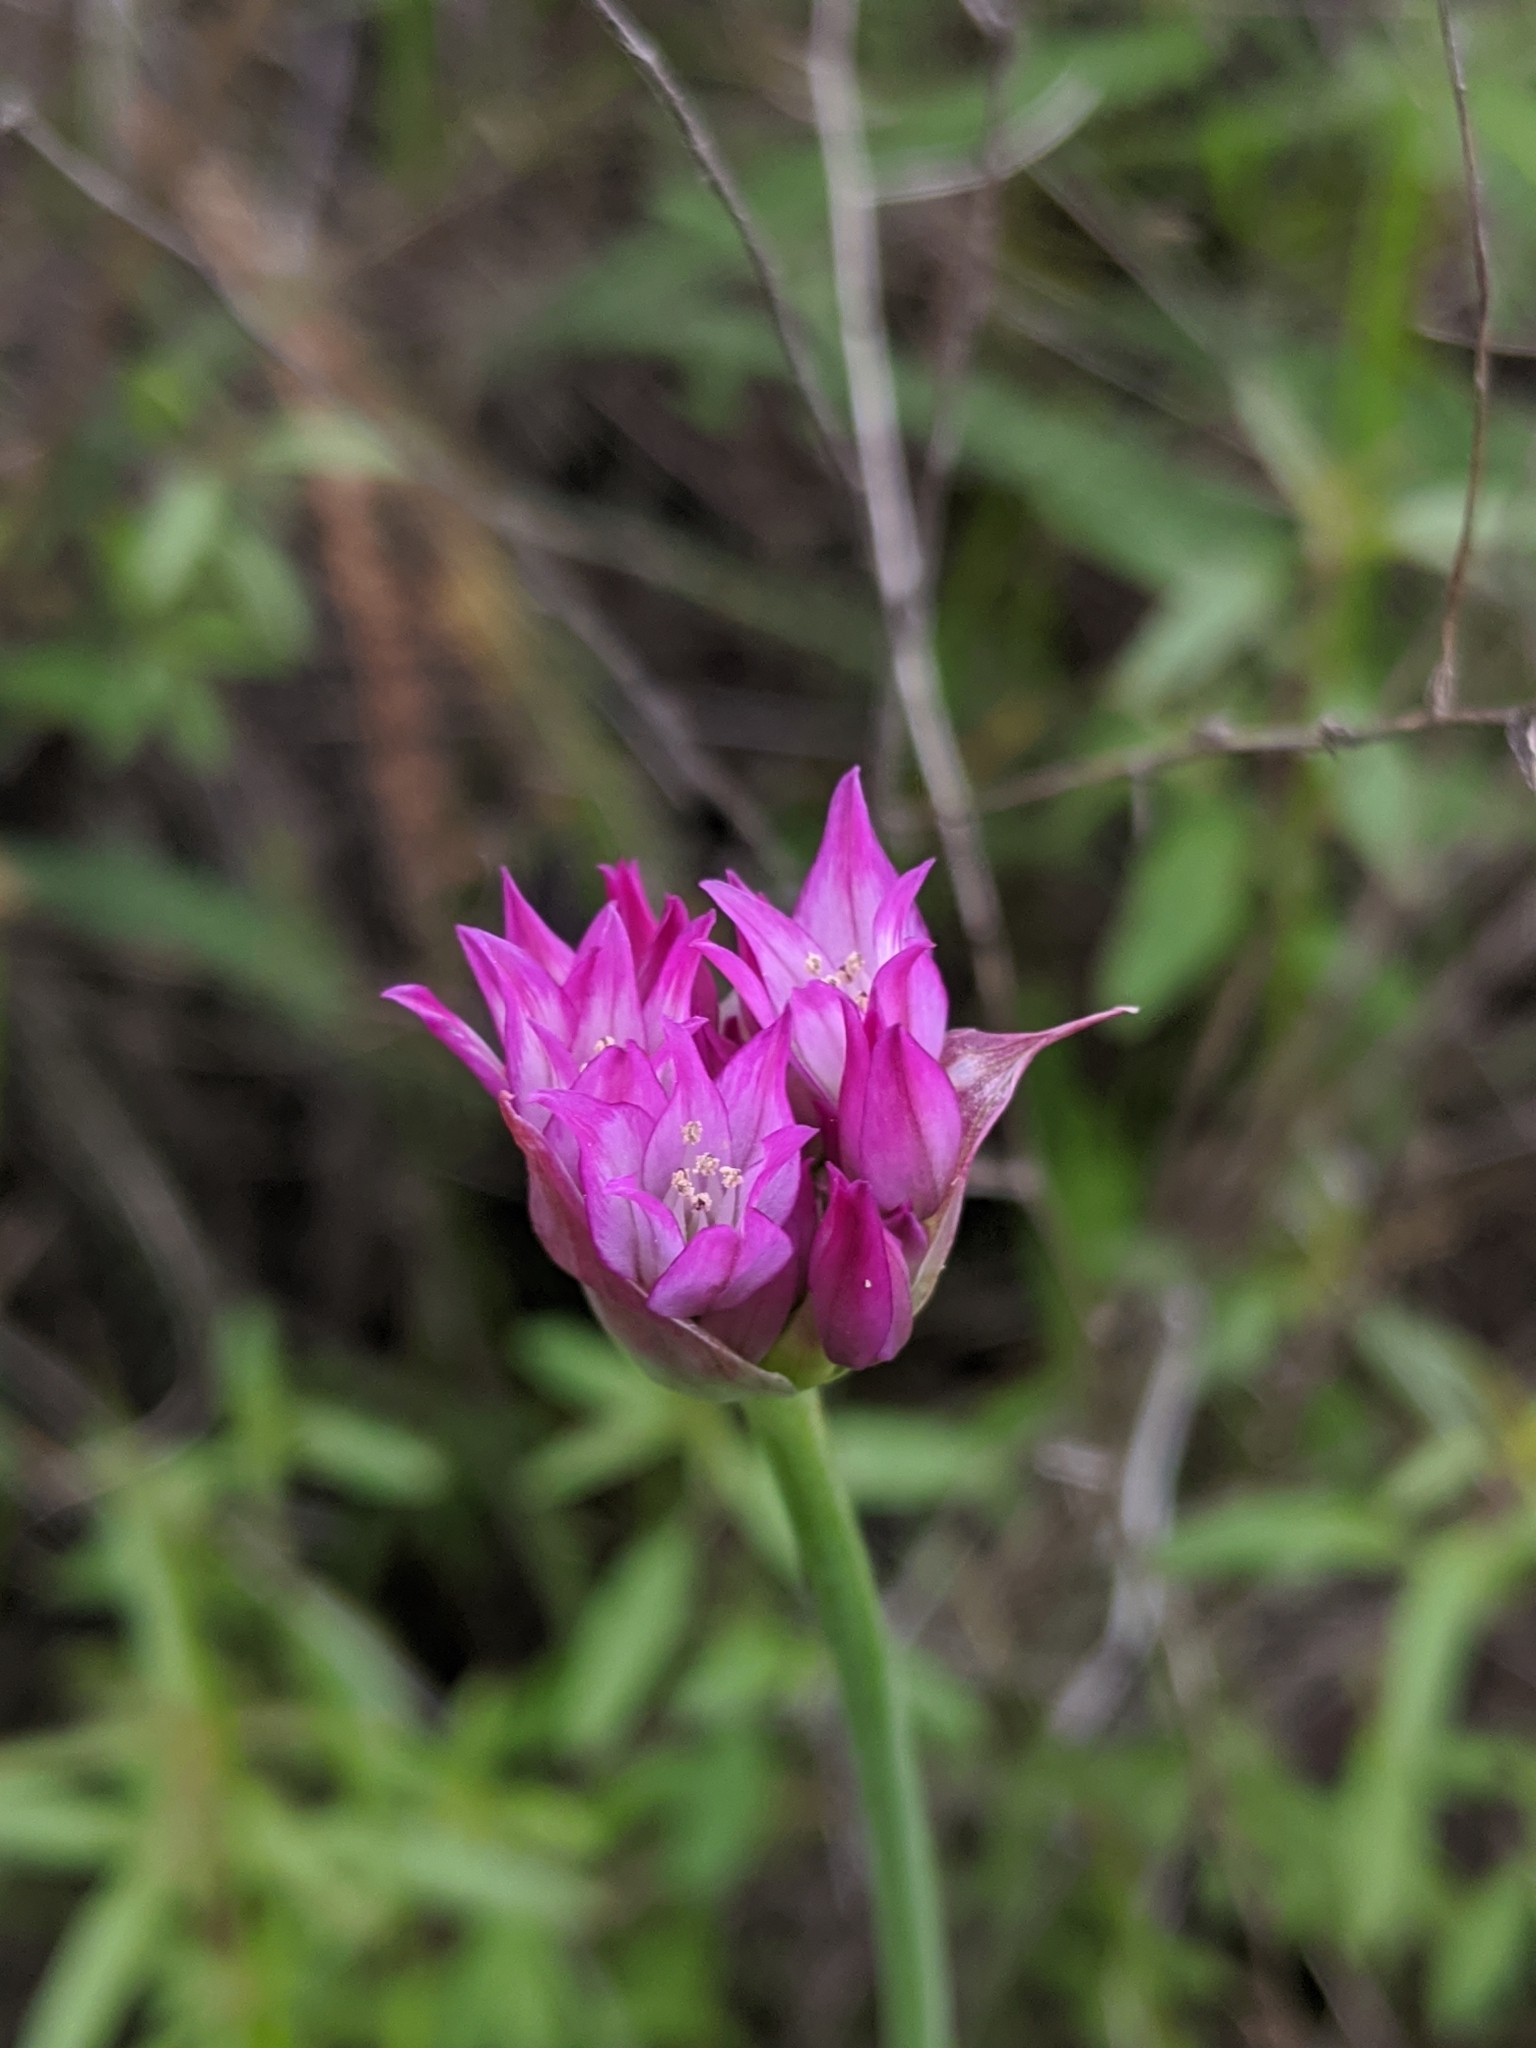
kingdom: Plantae
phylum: Tracheophyta
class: Liliopsida
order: Asparagales
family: Amaryllidaceae
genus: Allium
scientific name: Allium serra
